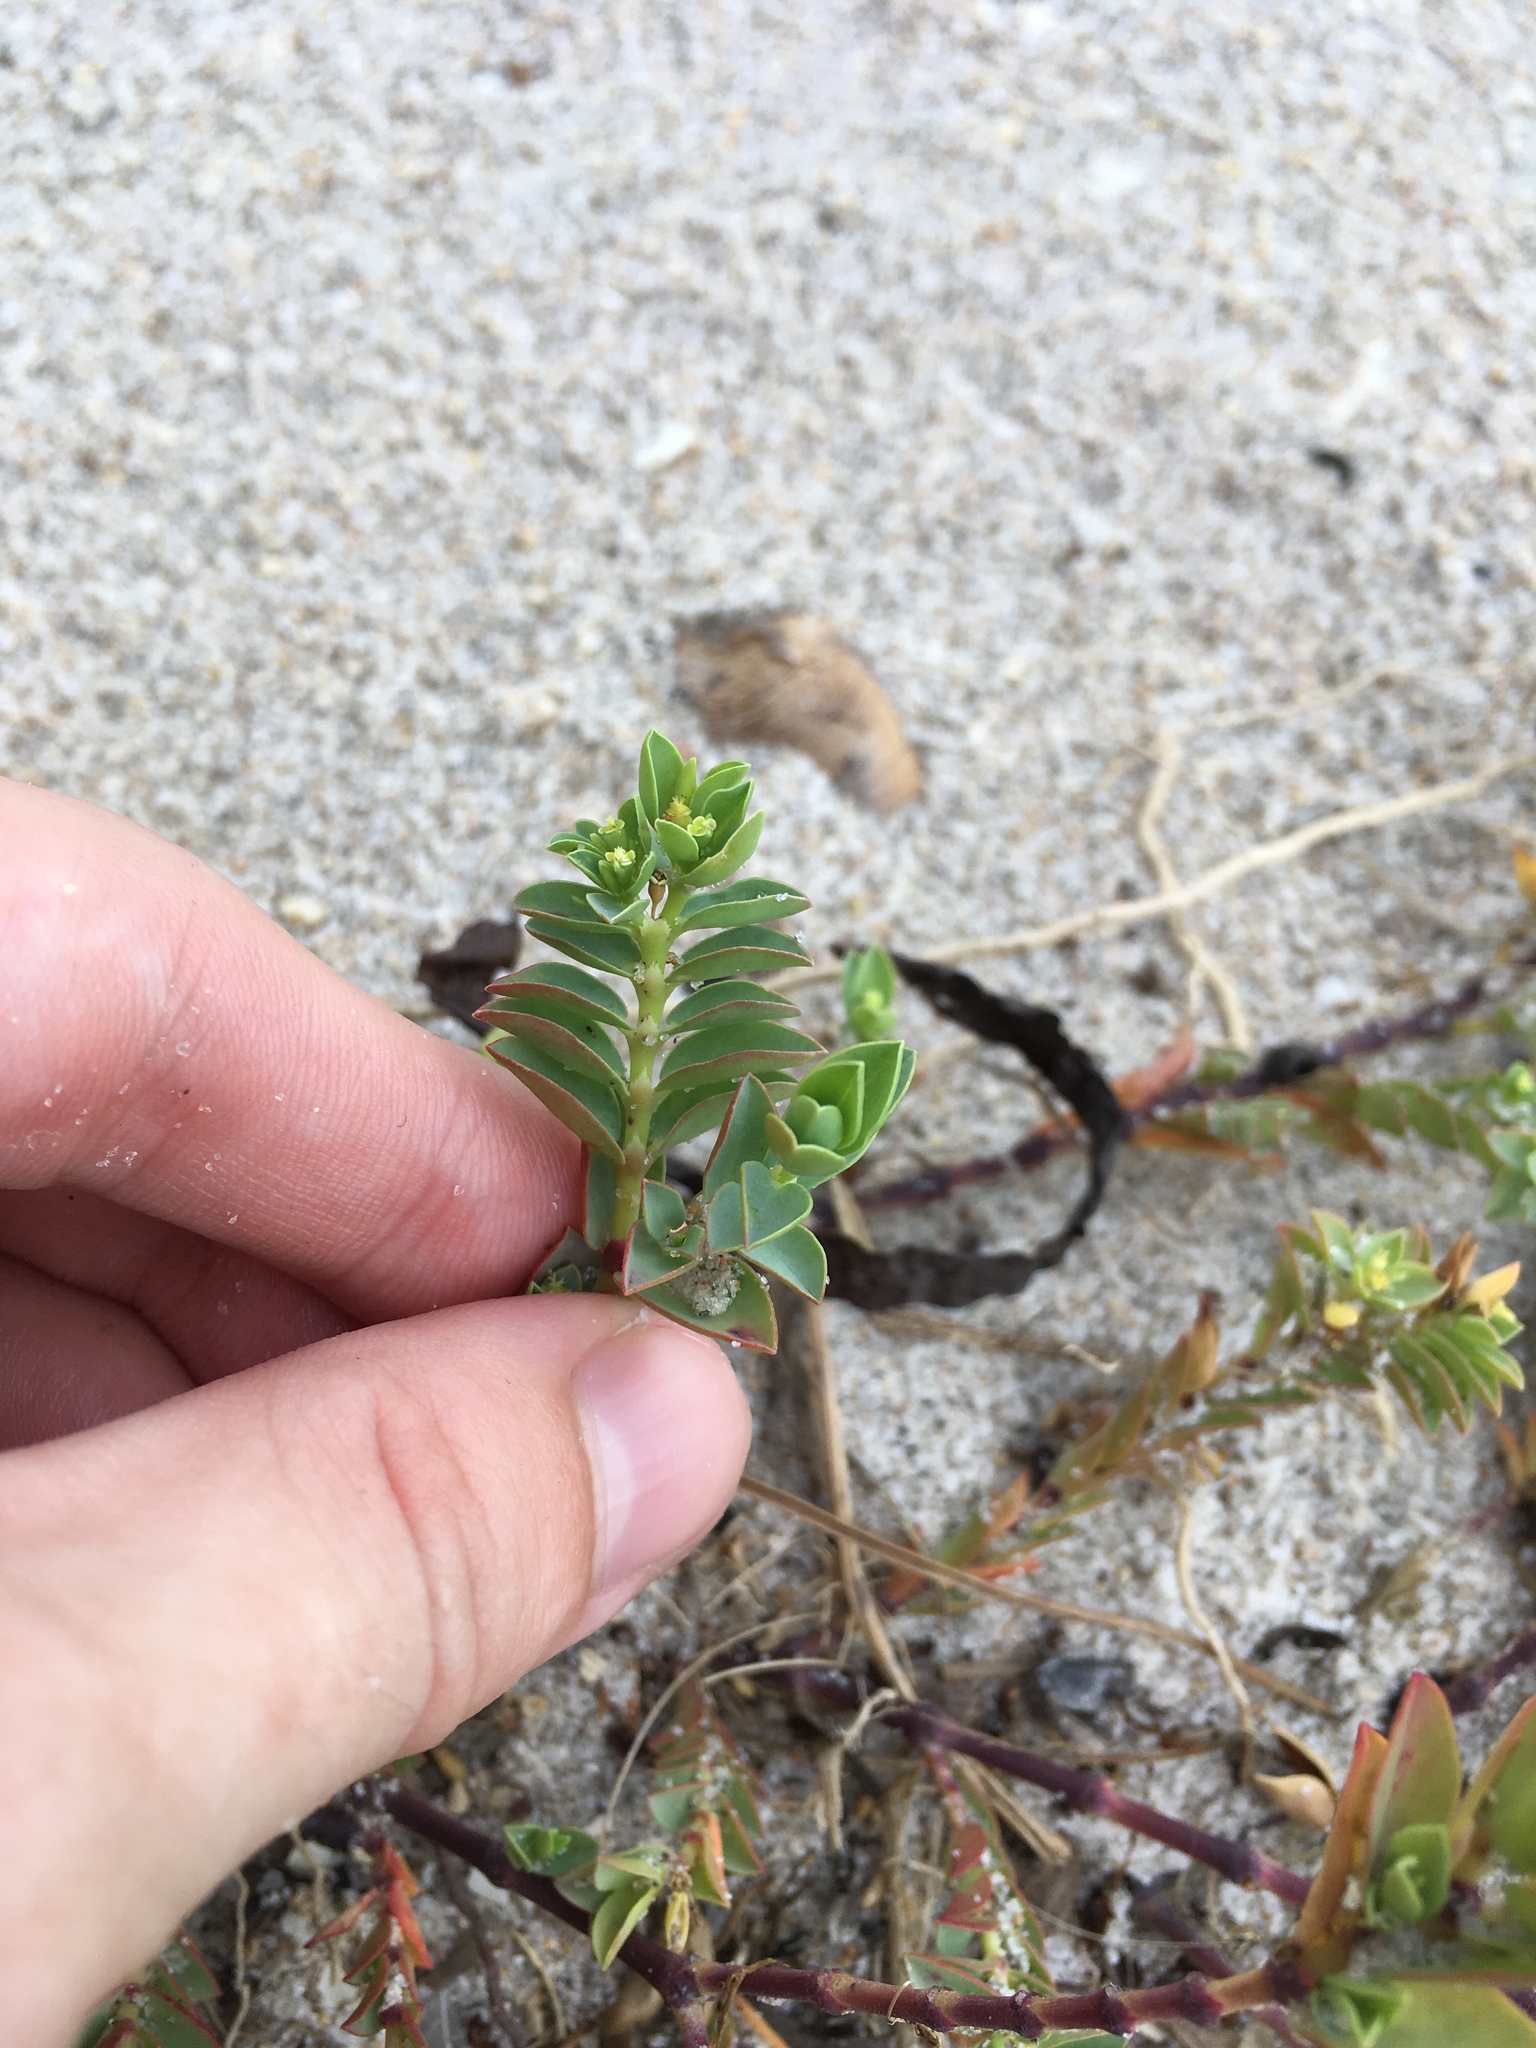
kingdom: Plantae
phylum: Tracheophyta
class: Magnoliopsida
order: Malpighiales
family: Euphorbiaceae
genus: Euphorbia
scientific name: Euphorbia mesembryanthemifolia
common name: Coastal beach sandmat
